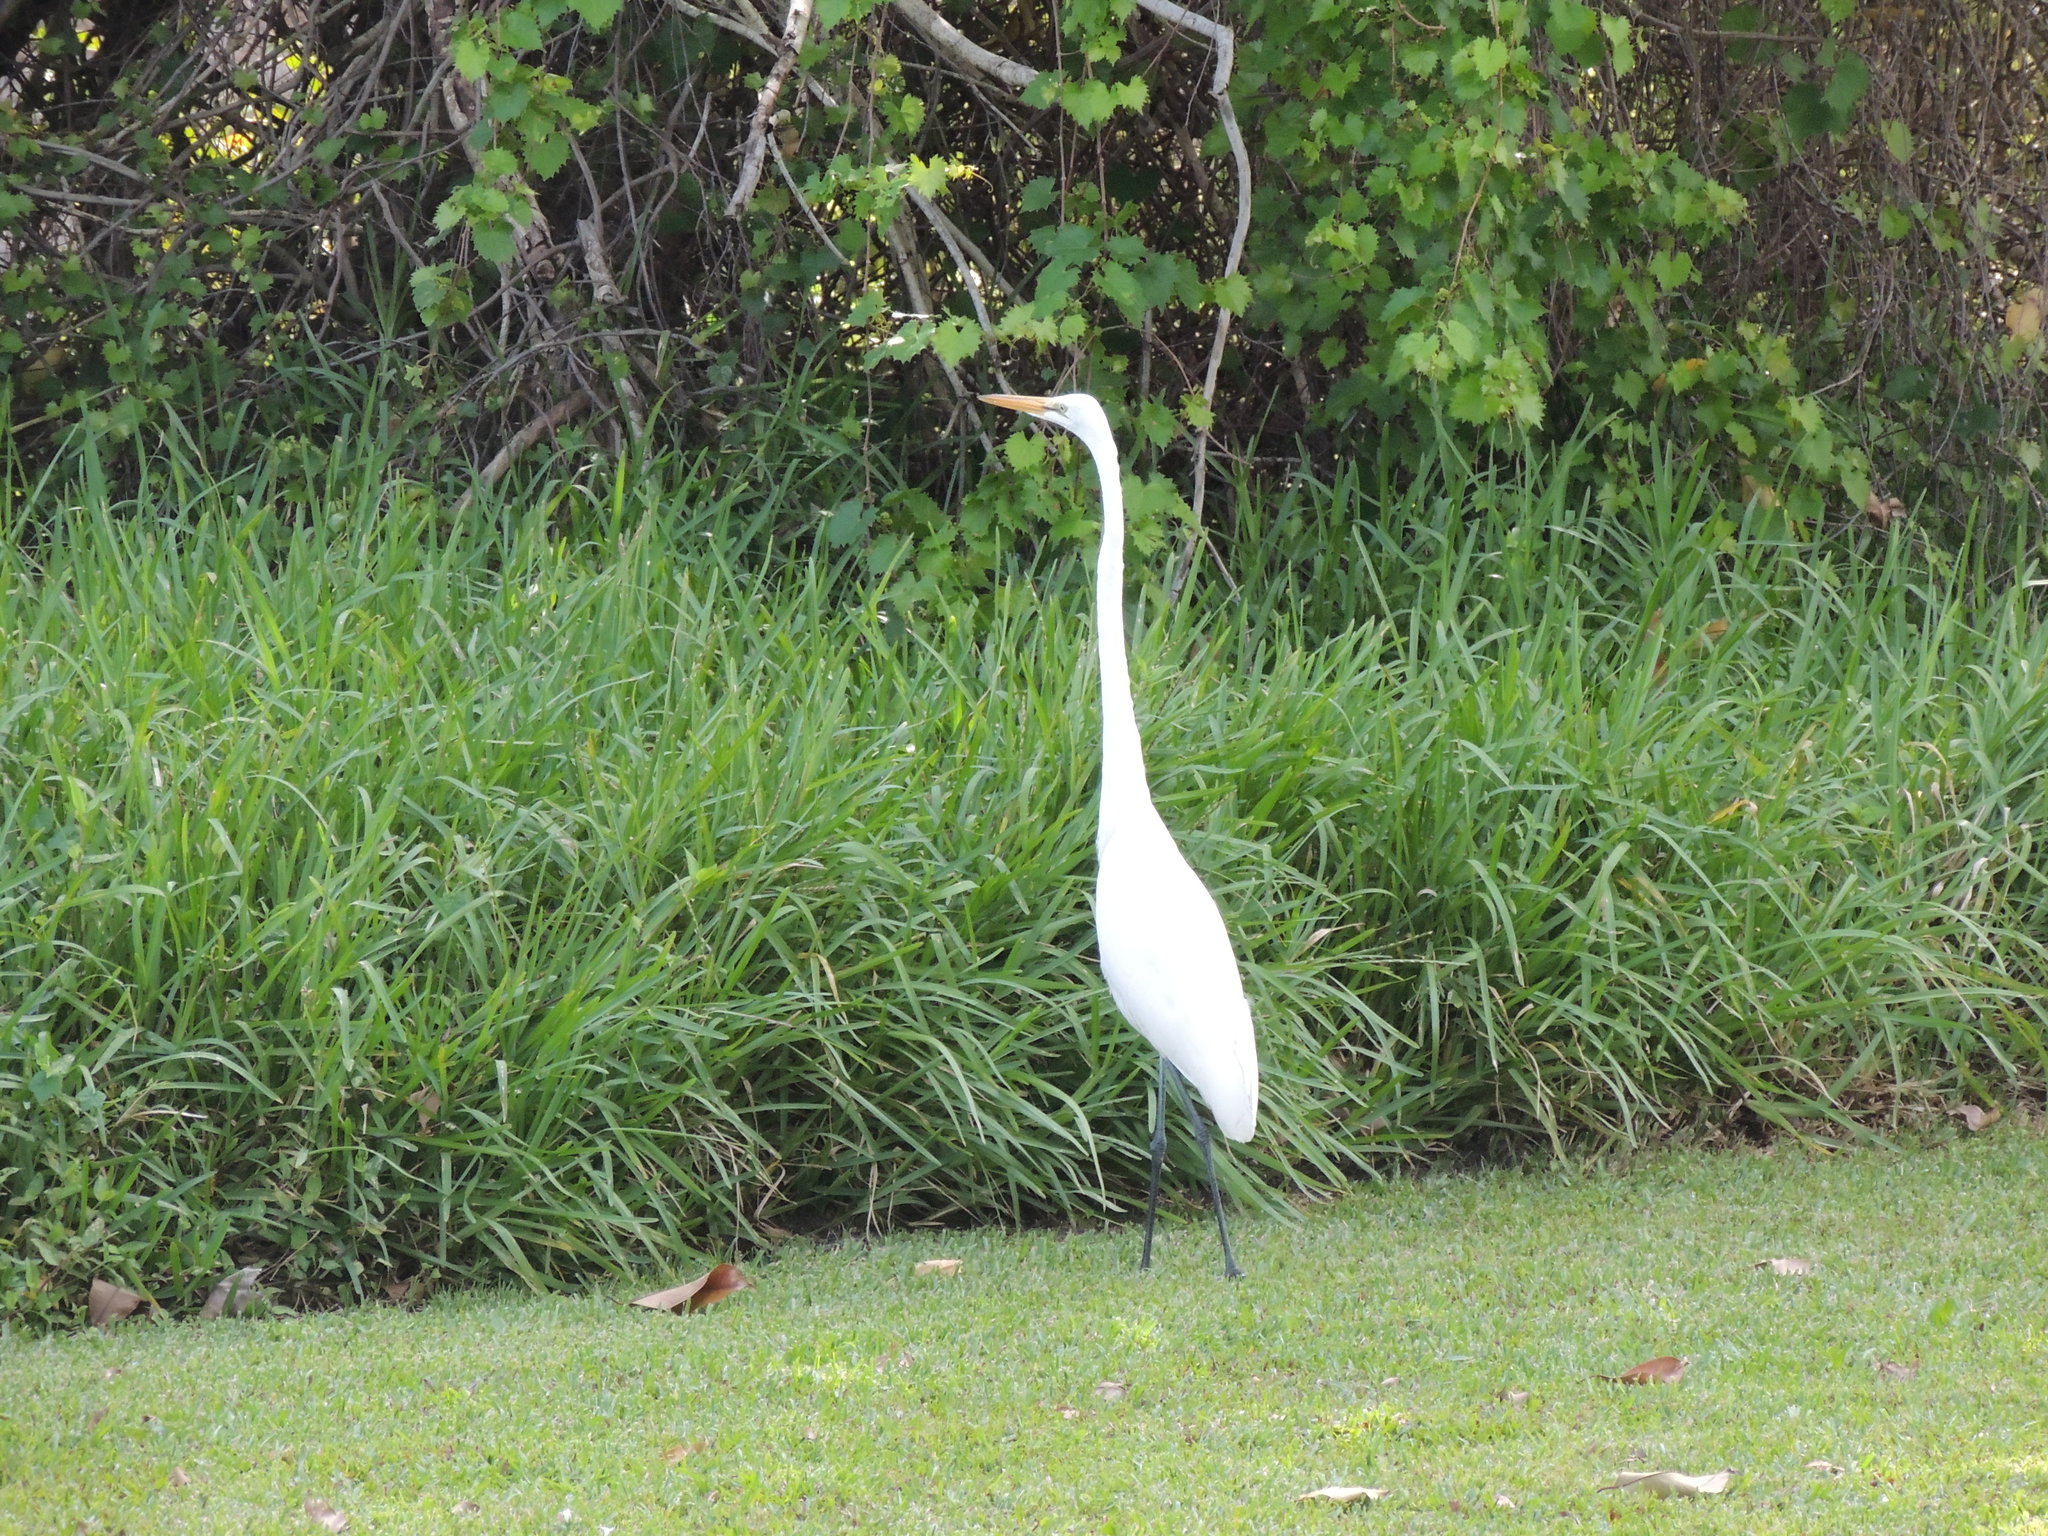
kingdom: Animalia
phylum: Chordata
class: Aves
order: Pelecaniformes
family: Ardeidae
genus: Ardea
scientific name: Ardea alba
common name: Great egret
